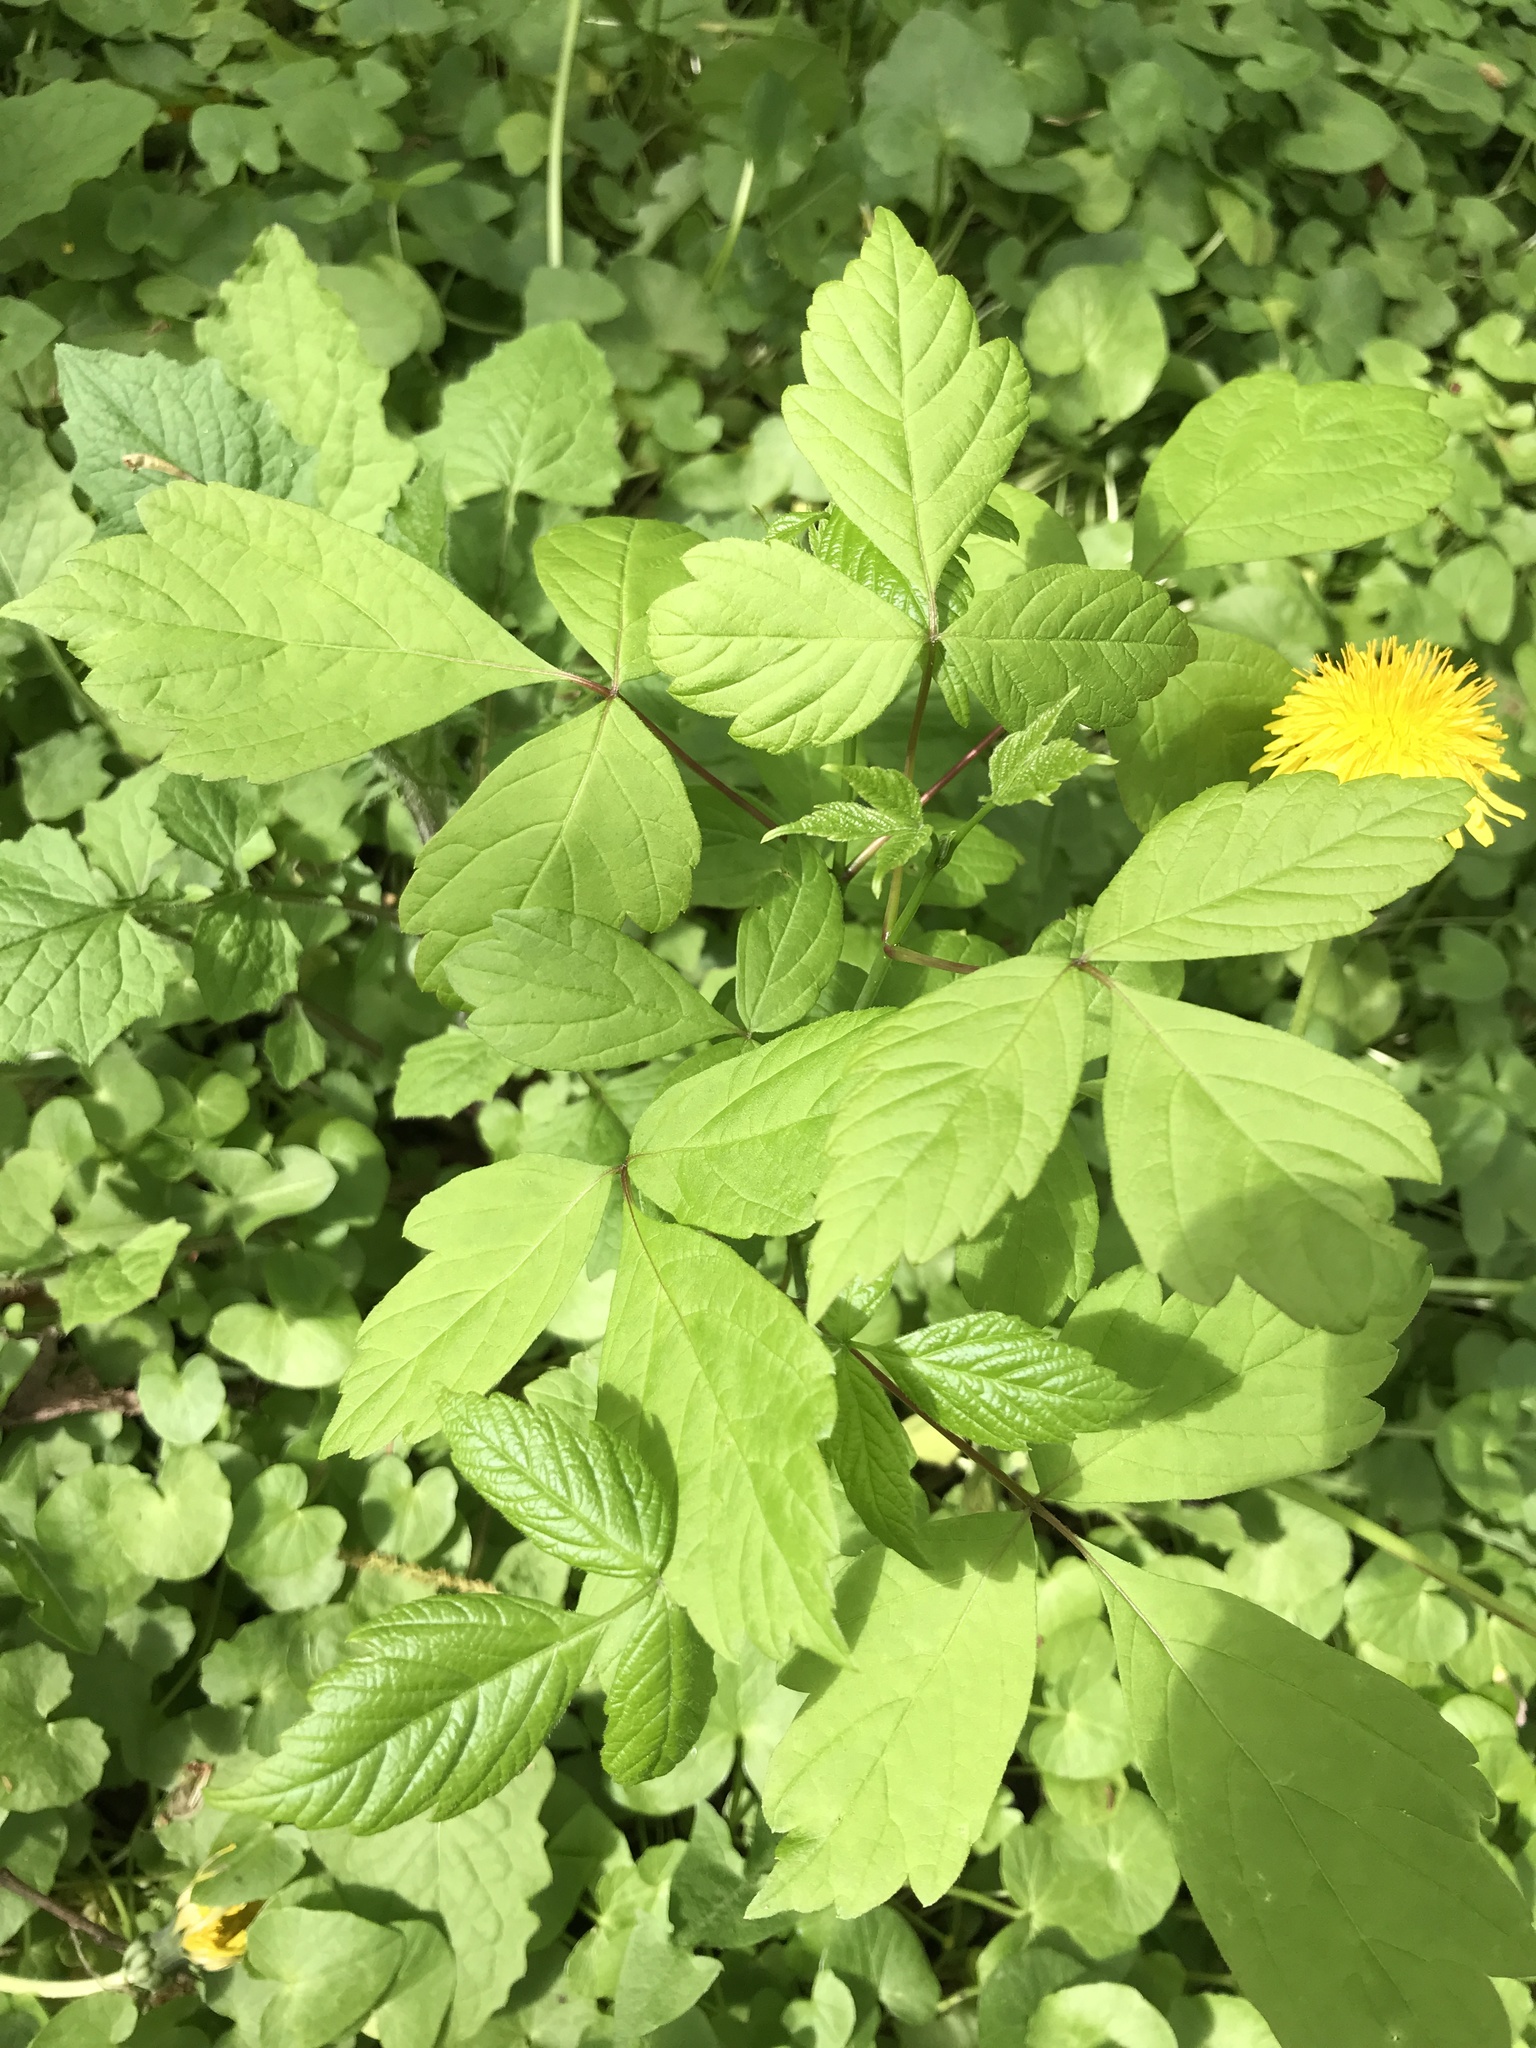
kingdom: Plantae
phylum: Tracheophyta
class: Magnoliopsida
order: Sapindales
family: Sapindaceae
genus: Acer
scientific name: Acer negundo
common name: Ashleaf maple
